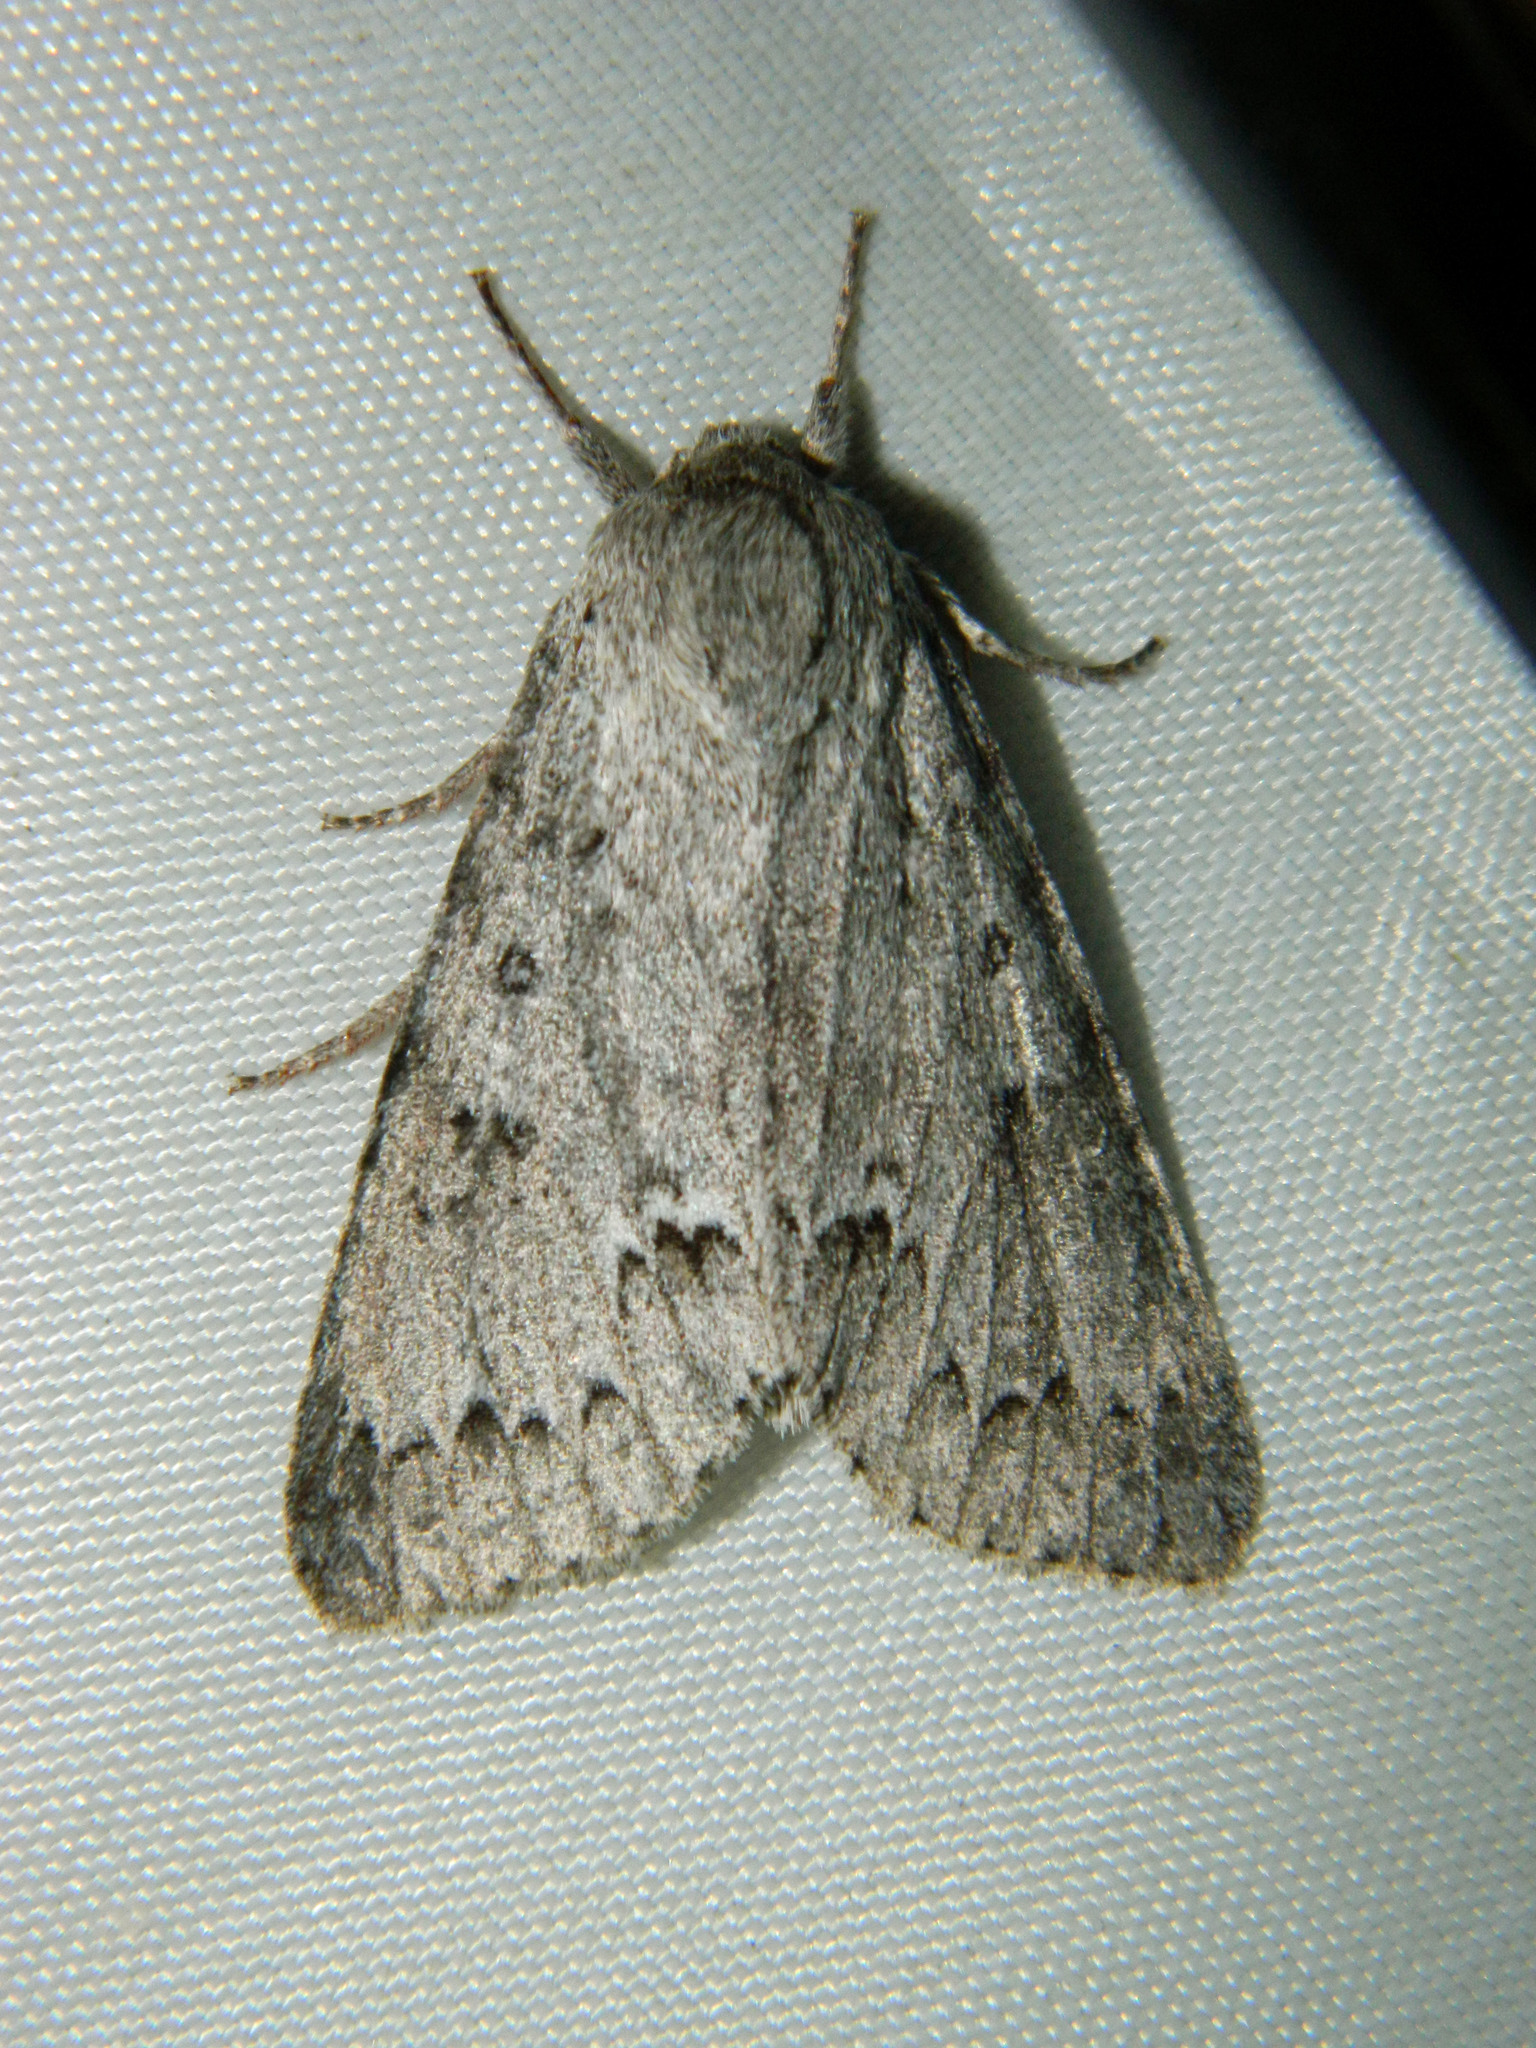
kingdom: Animalia
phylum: Arthropoda
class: Insecta
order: Lepidoptera
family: Noctuidae
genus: Acronicta
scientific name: Acronicta insita
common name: Large gray dagger
